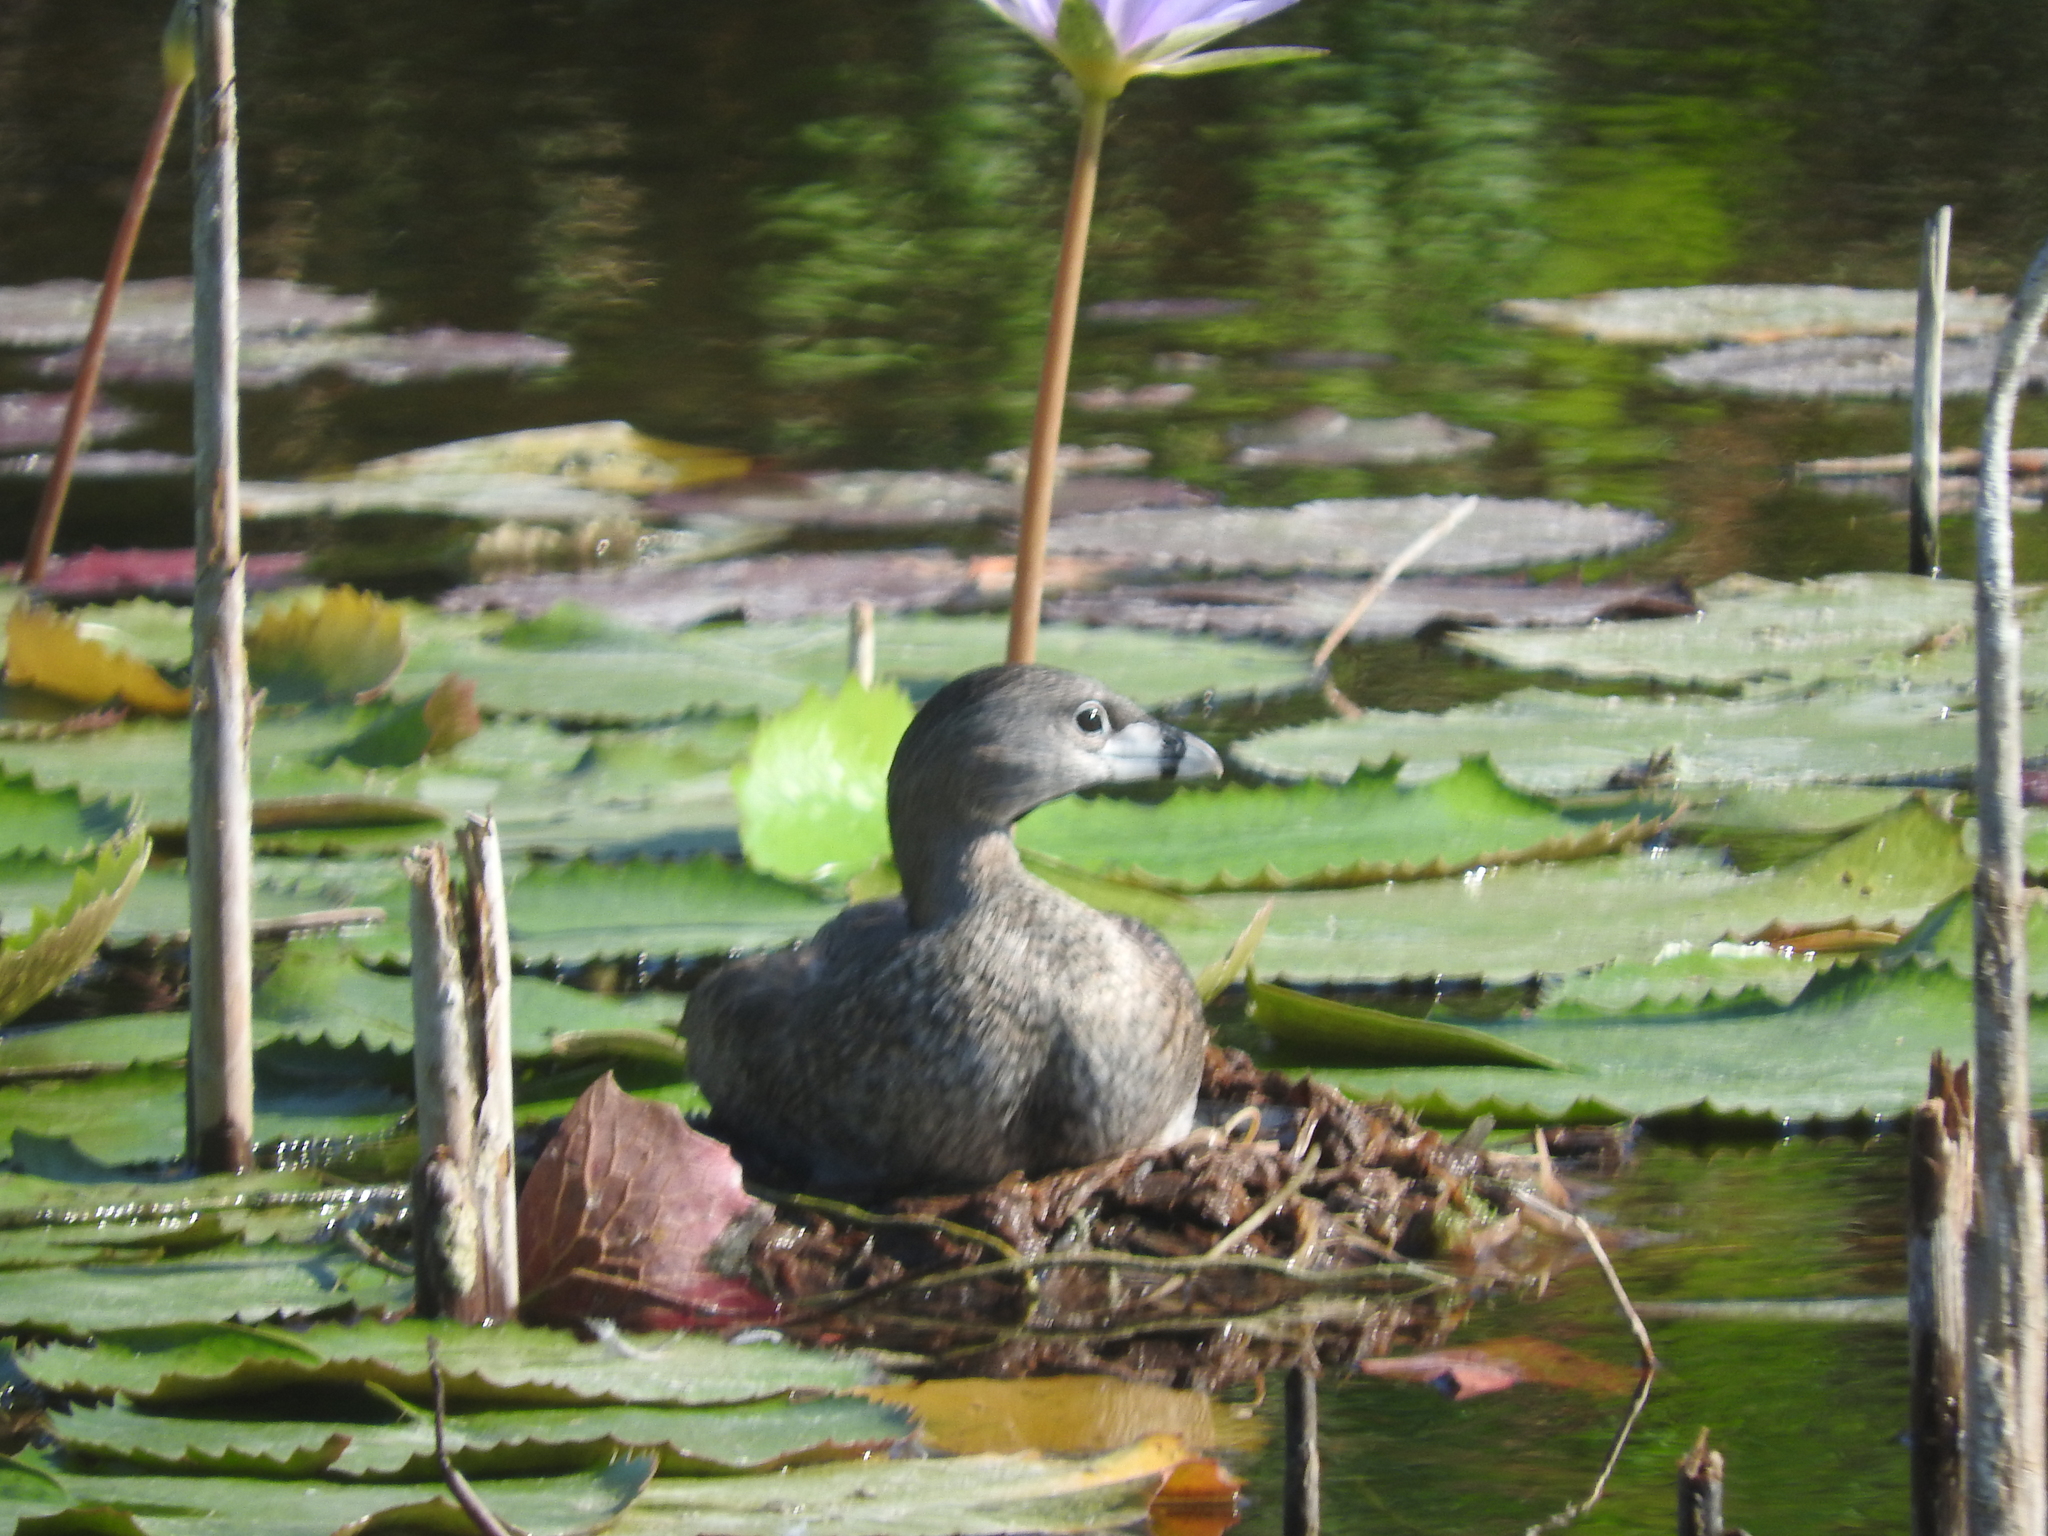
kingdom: Animalia
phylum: Chordata
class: Aves
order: Podicipediformes
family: Podicipedidae
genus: Podilymbus
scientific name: Podilymbus podiceps
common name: Pied-billed grebe
